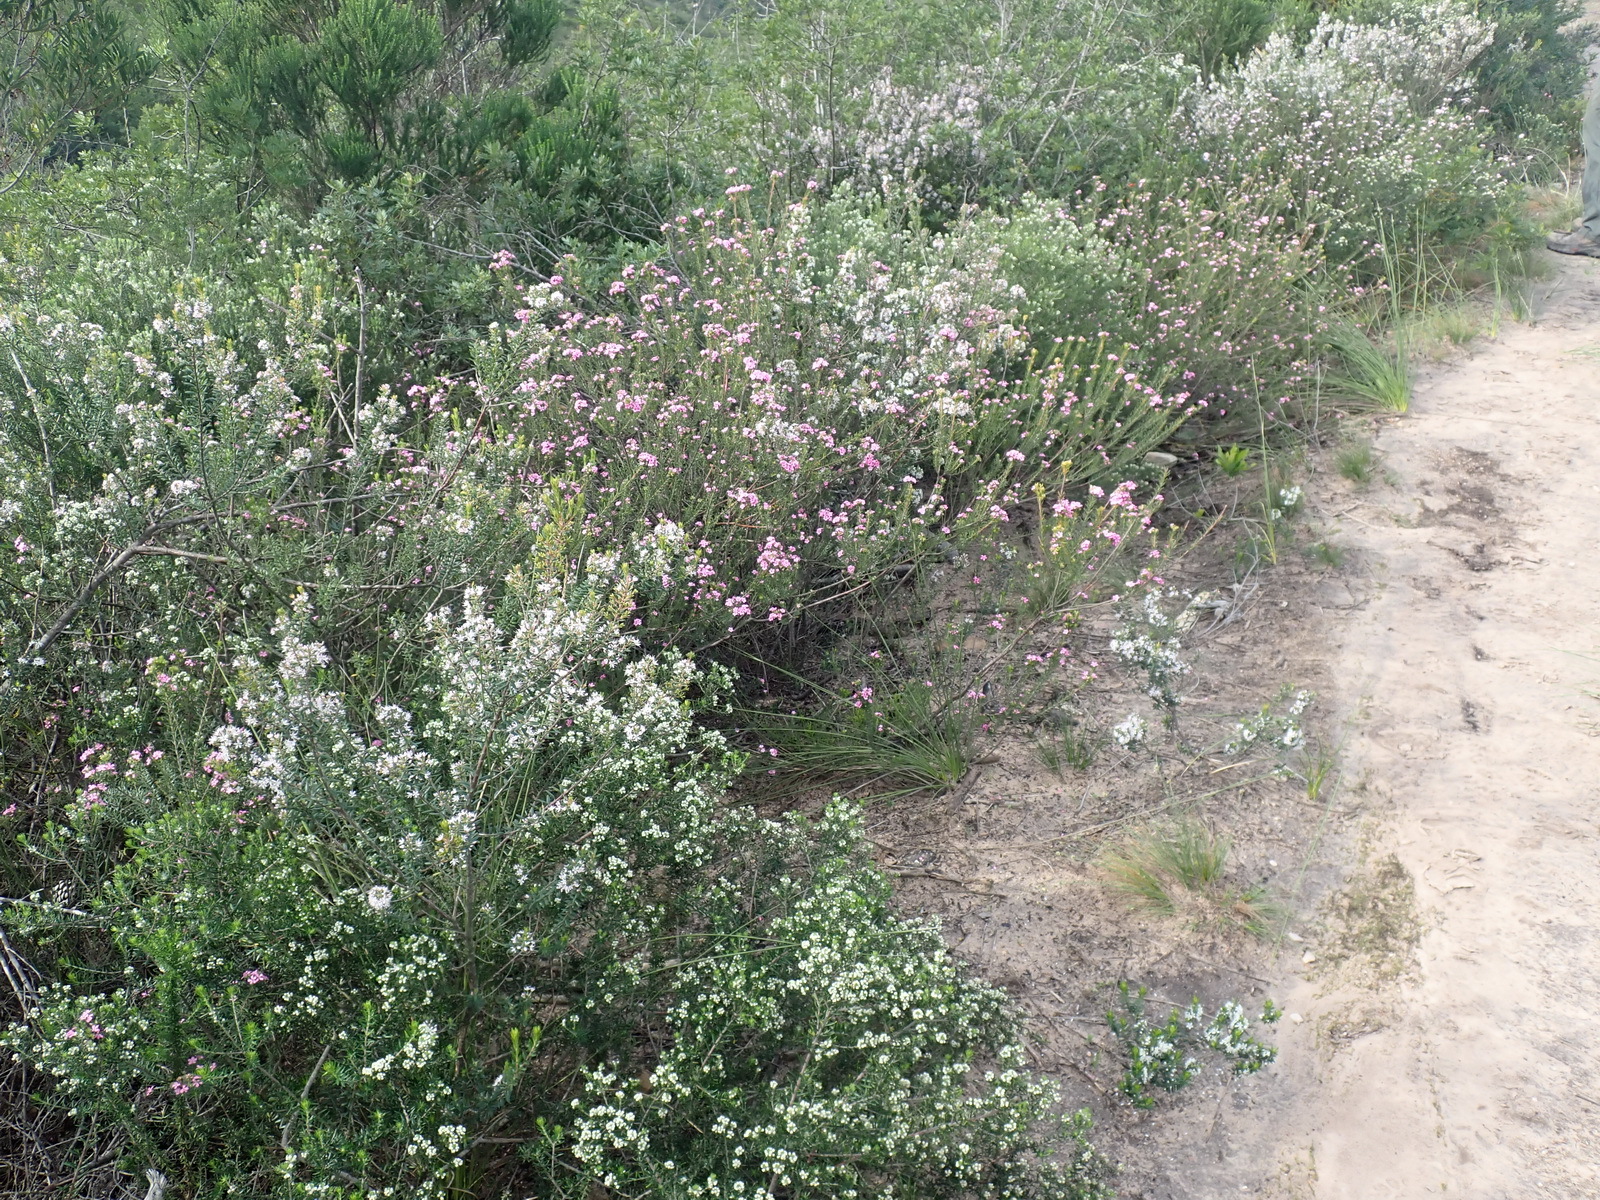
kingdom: Plantae
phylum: Tracheophyta
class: Magnoliopsida
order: Sapindales
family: Rutaceae
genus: Agathosma
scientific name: Agathosma ovata
